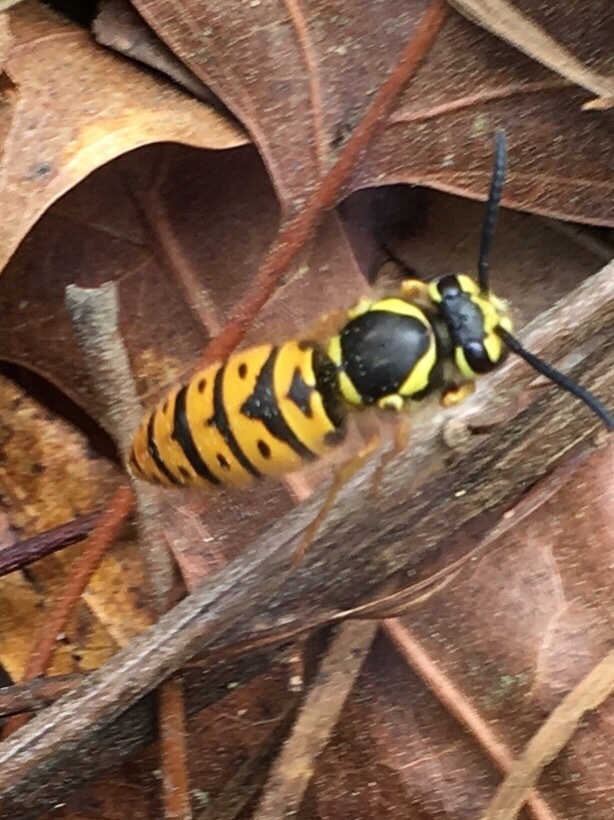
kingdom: Animalia
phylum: Arthropoda
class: Insecta
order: Hymenoptera
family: Vespidae
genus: Vespula
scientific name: Vespula maculifrons
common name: Eastern yellowjacket
